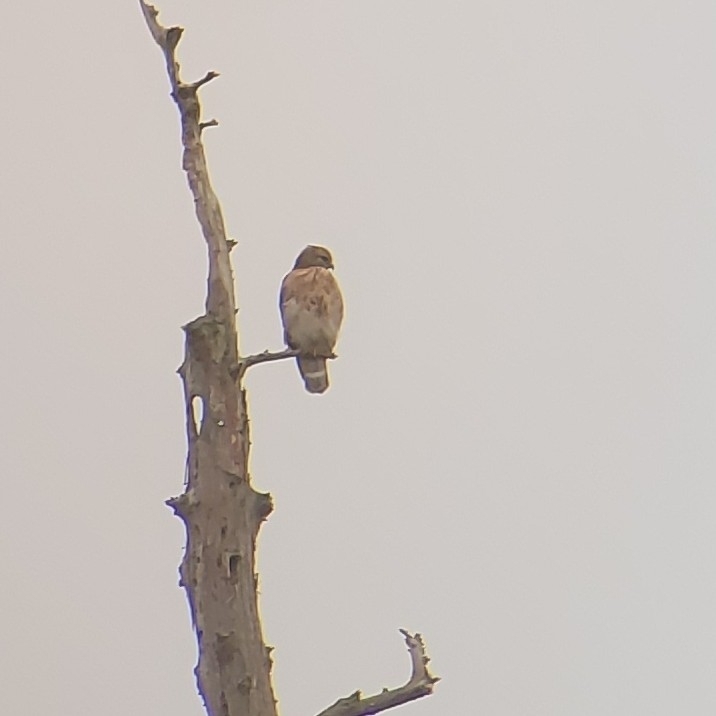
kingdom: Animalia
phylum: Chordata
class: Aves
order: Accipitriformes
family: Accipitridae
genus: Buteo
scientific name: Buteo lineatus
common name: Red-shouldered hawk
